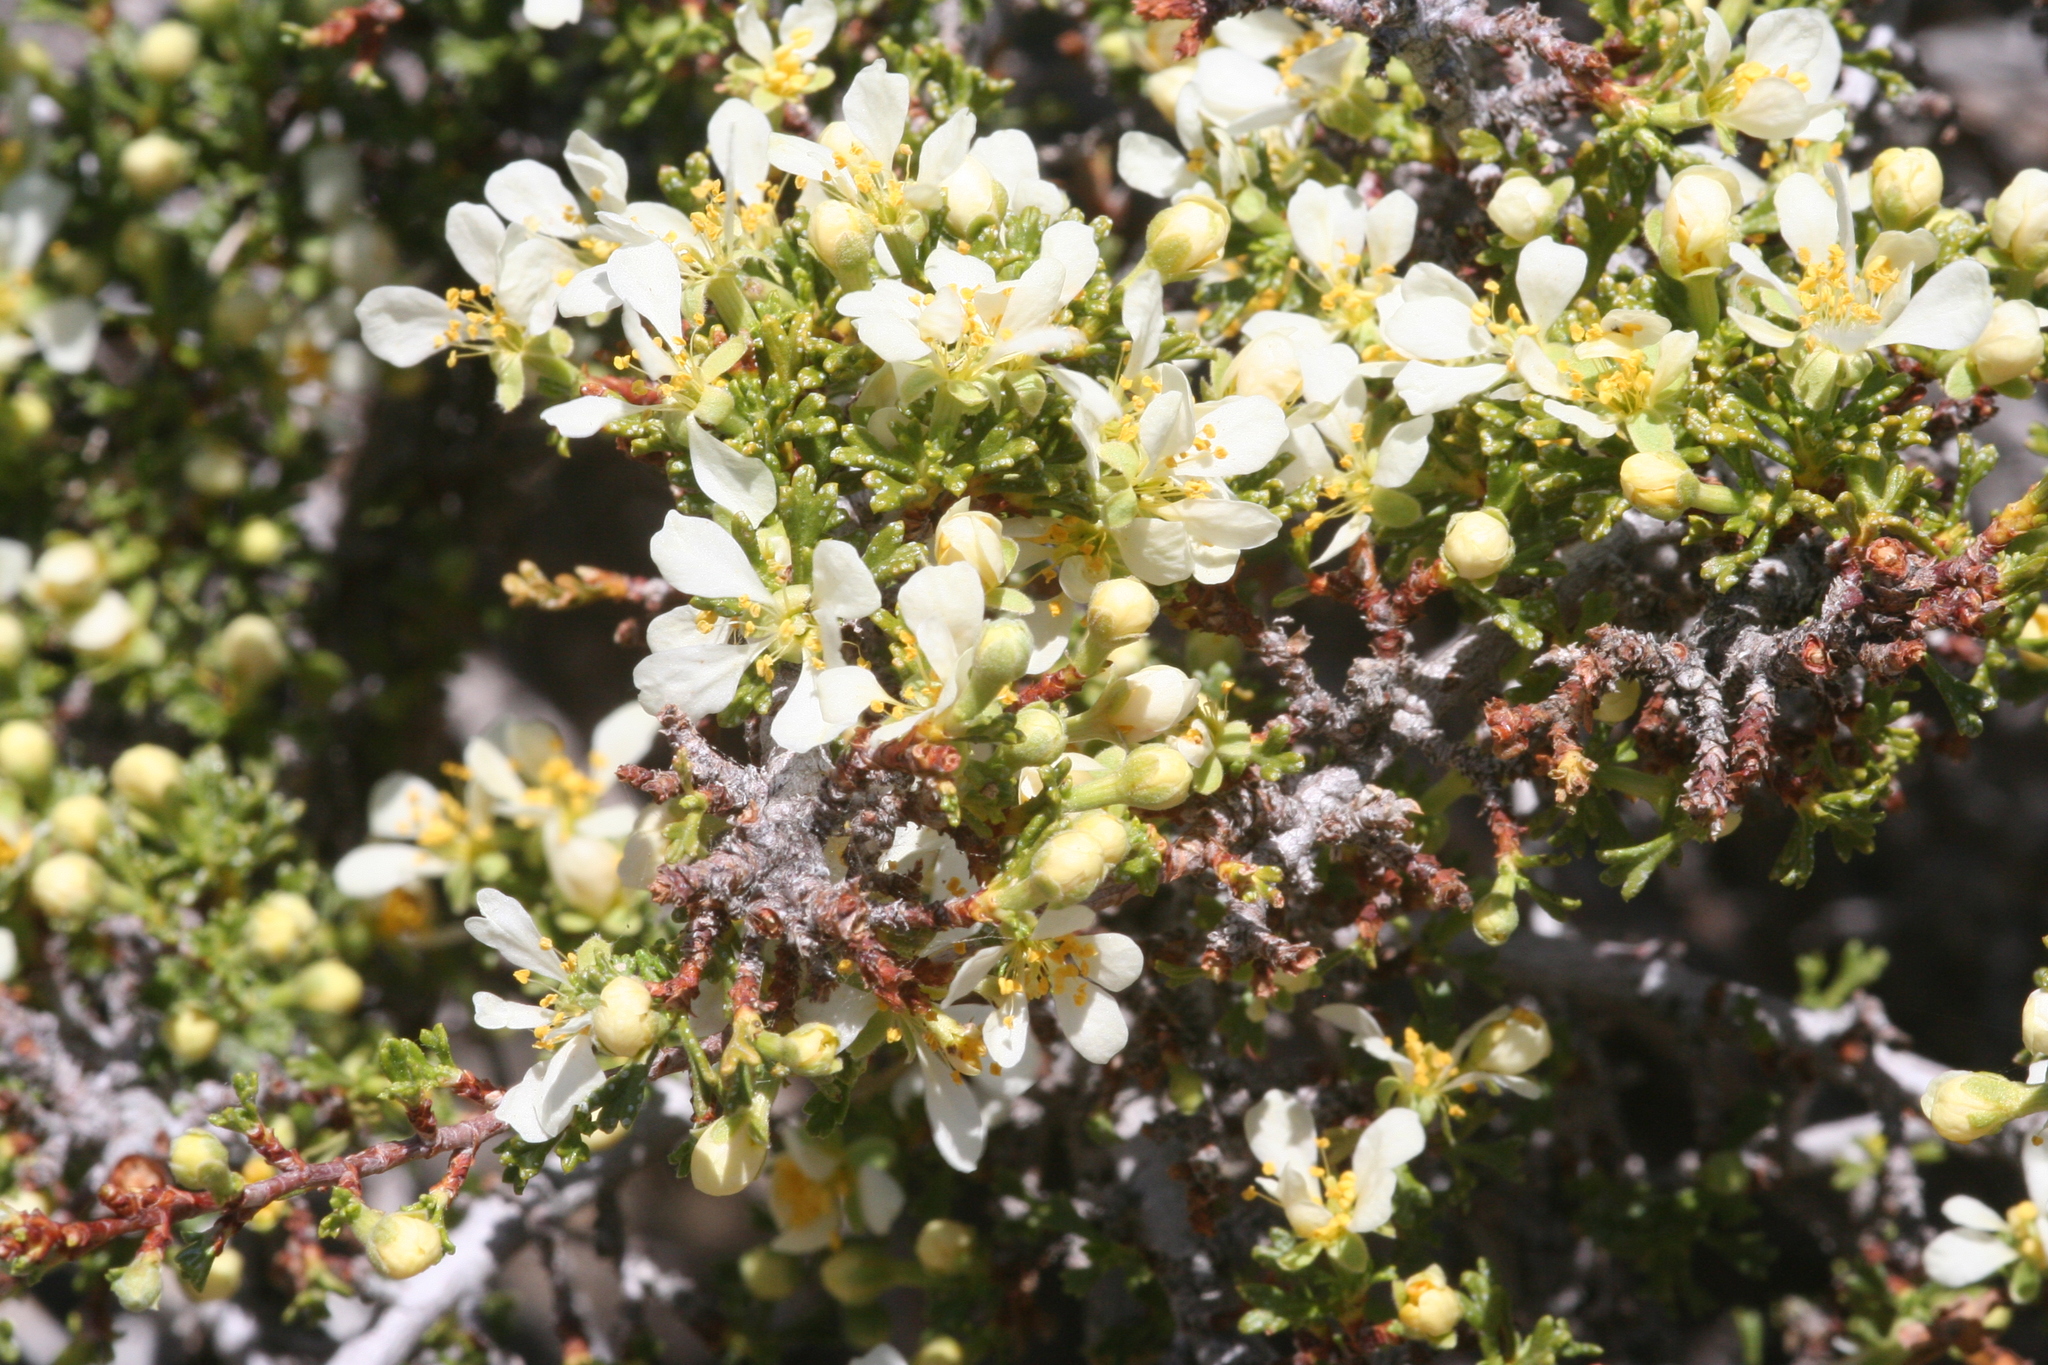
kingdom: Plantae
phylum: Tracheophyta
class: Magnoliopsida
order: Rosales
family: Rosaceae
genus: Purshia
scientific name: Purshia glandulosa
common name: Desert bitterbrush
